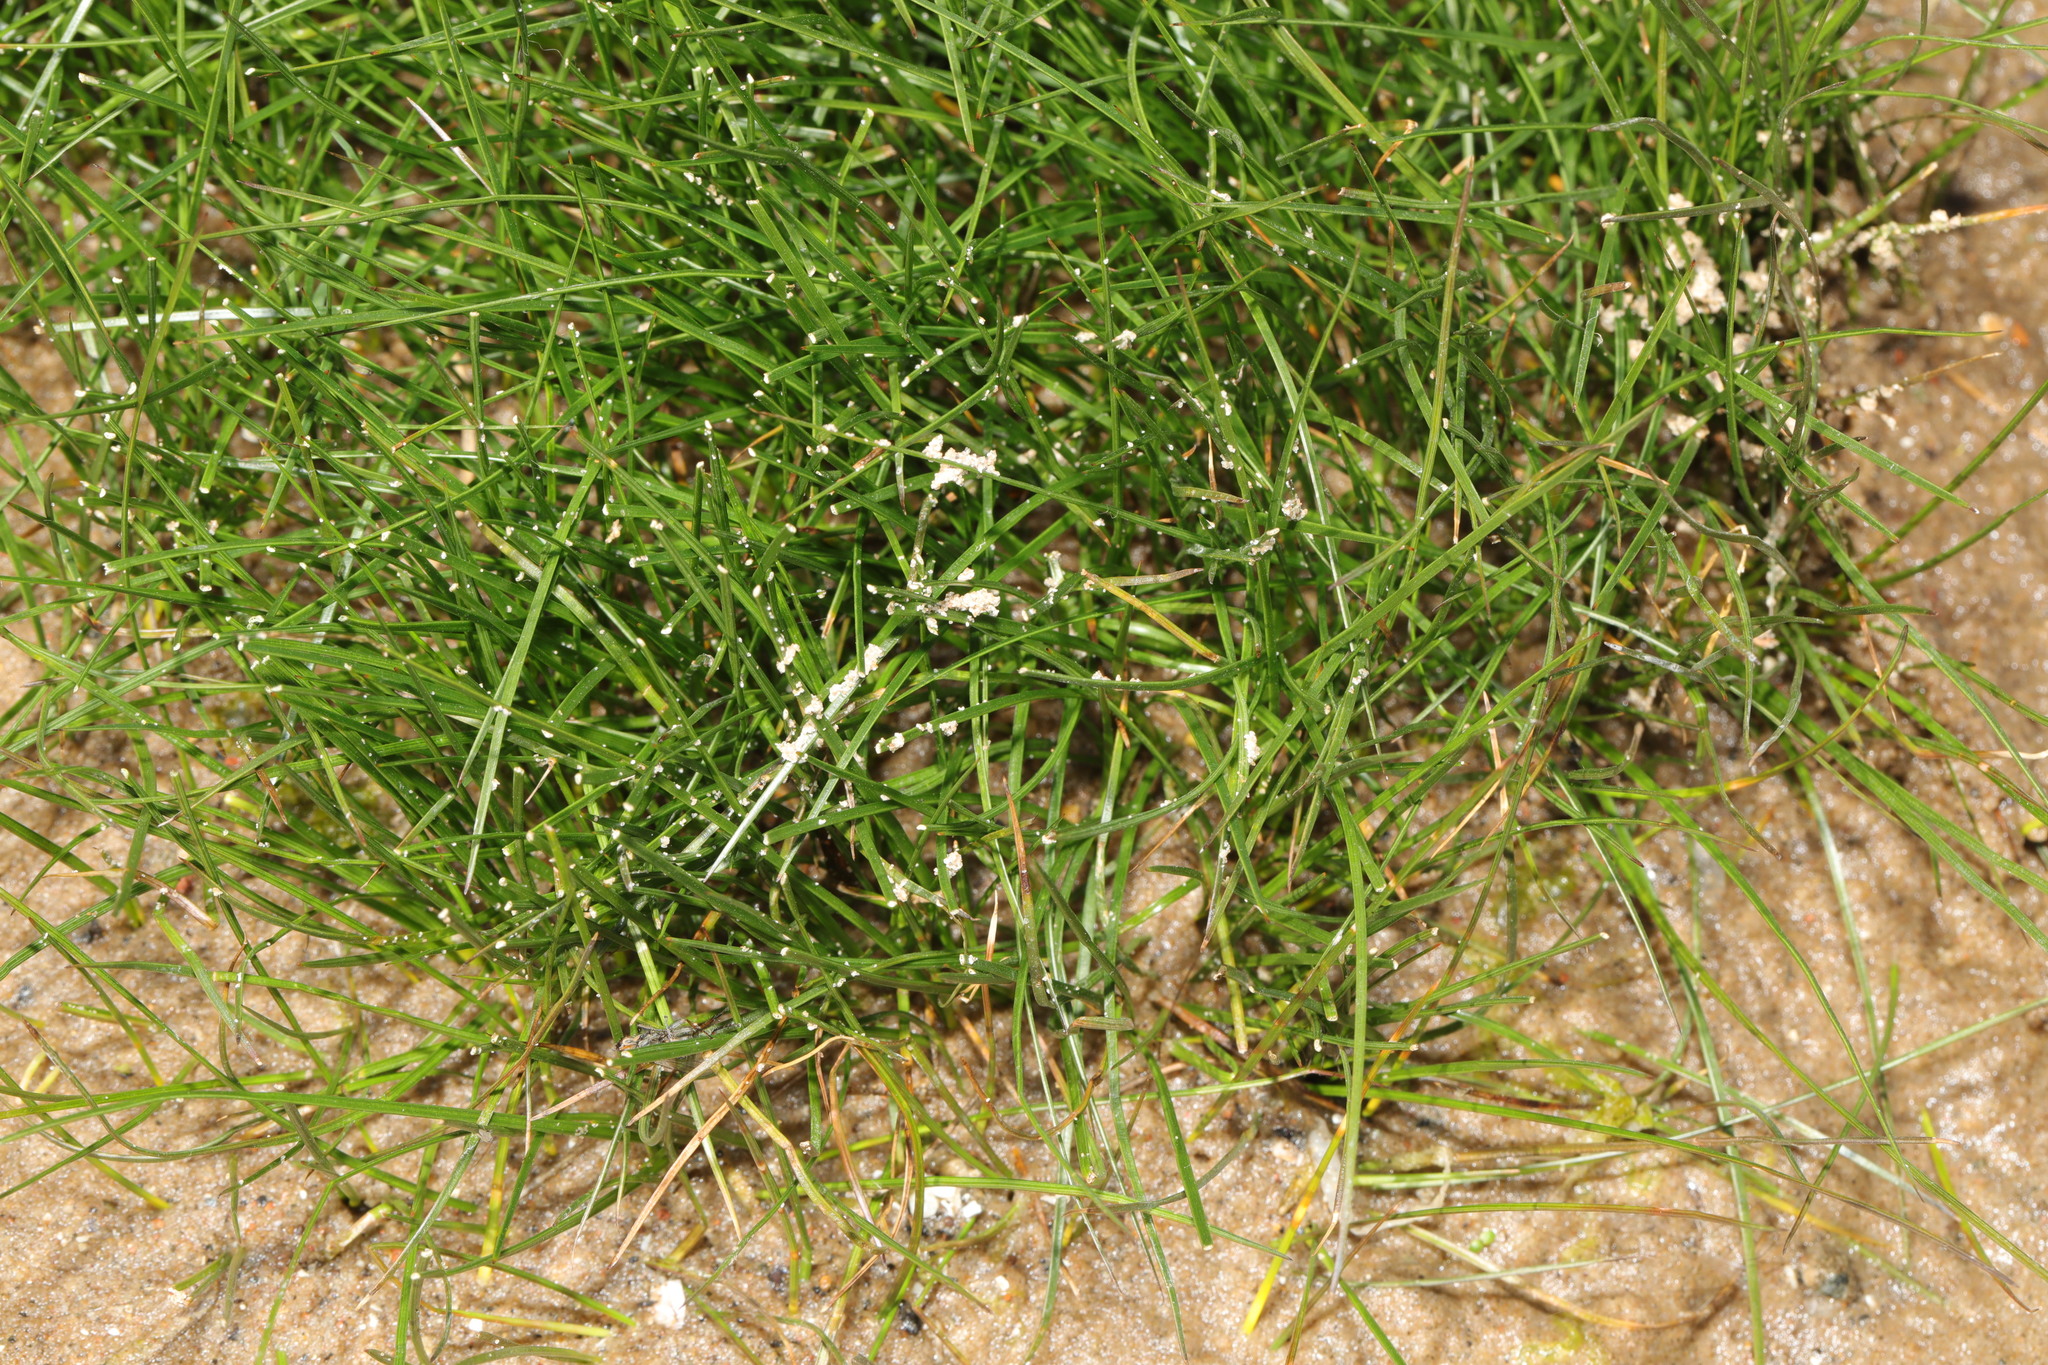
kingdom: Plantae
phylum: Tracheophyta
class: Liliopsida
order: Poales
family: Poaceae
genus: Parapholis
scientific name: Parapholis strigosa
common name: Hard-grass
